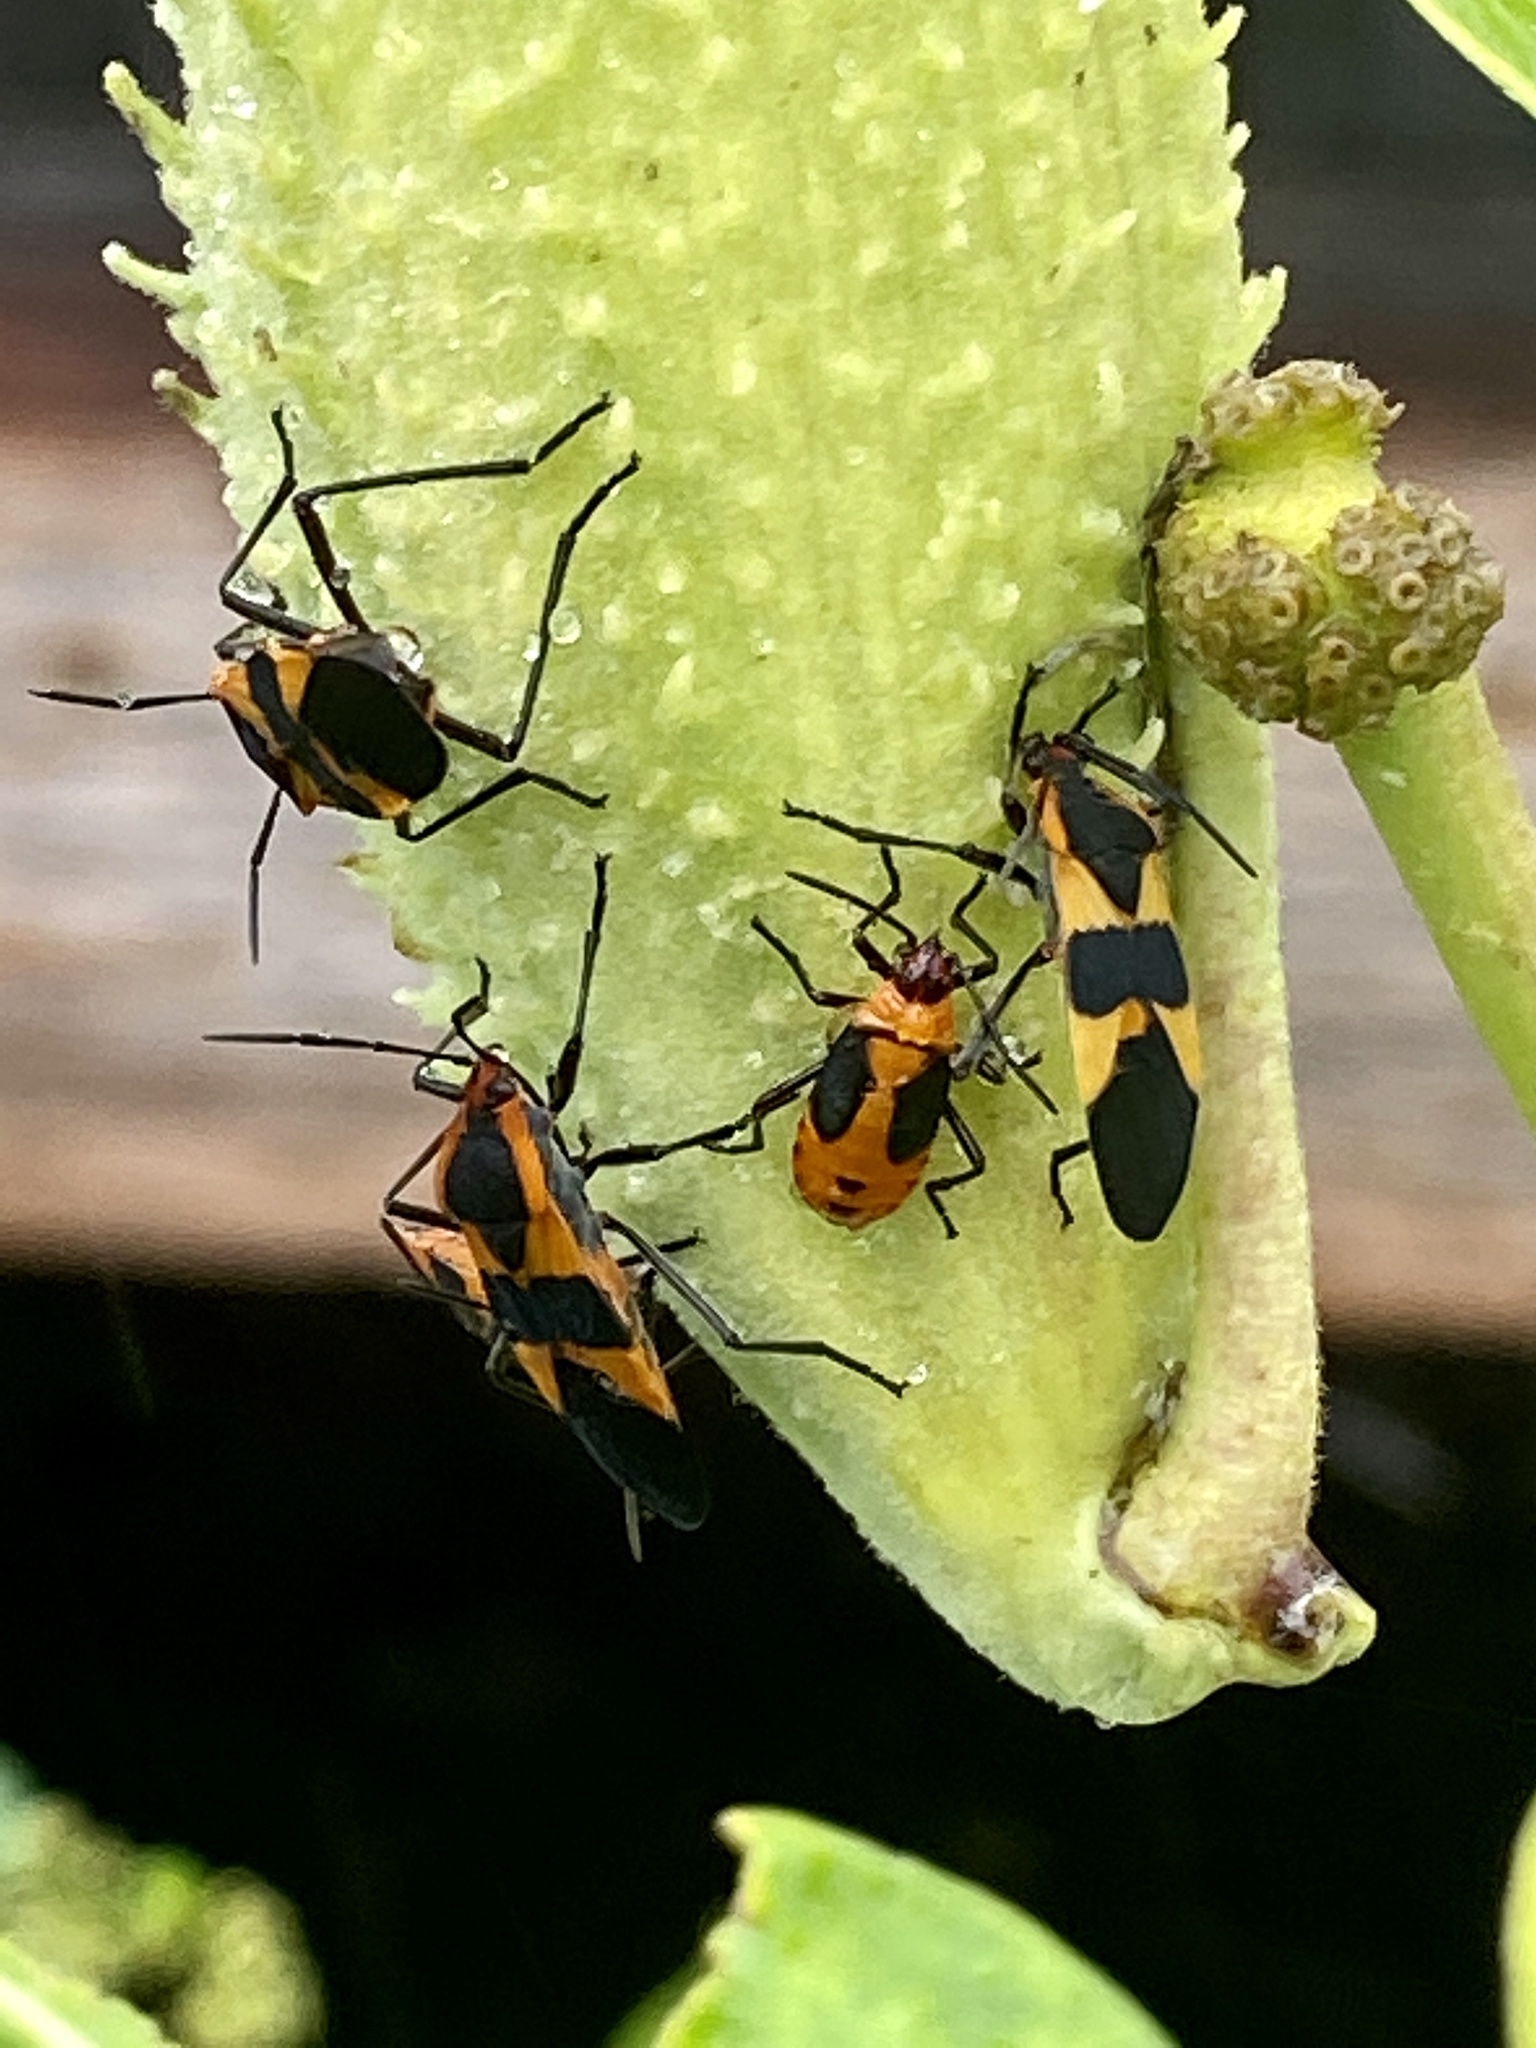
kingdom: Animalia
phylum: Arthropoda
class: Insecta
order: Hemiptera
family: Lygaeidae
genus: Oncopeltus
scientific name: Oncopeltus fasciatus
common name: Large milkweed bug
